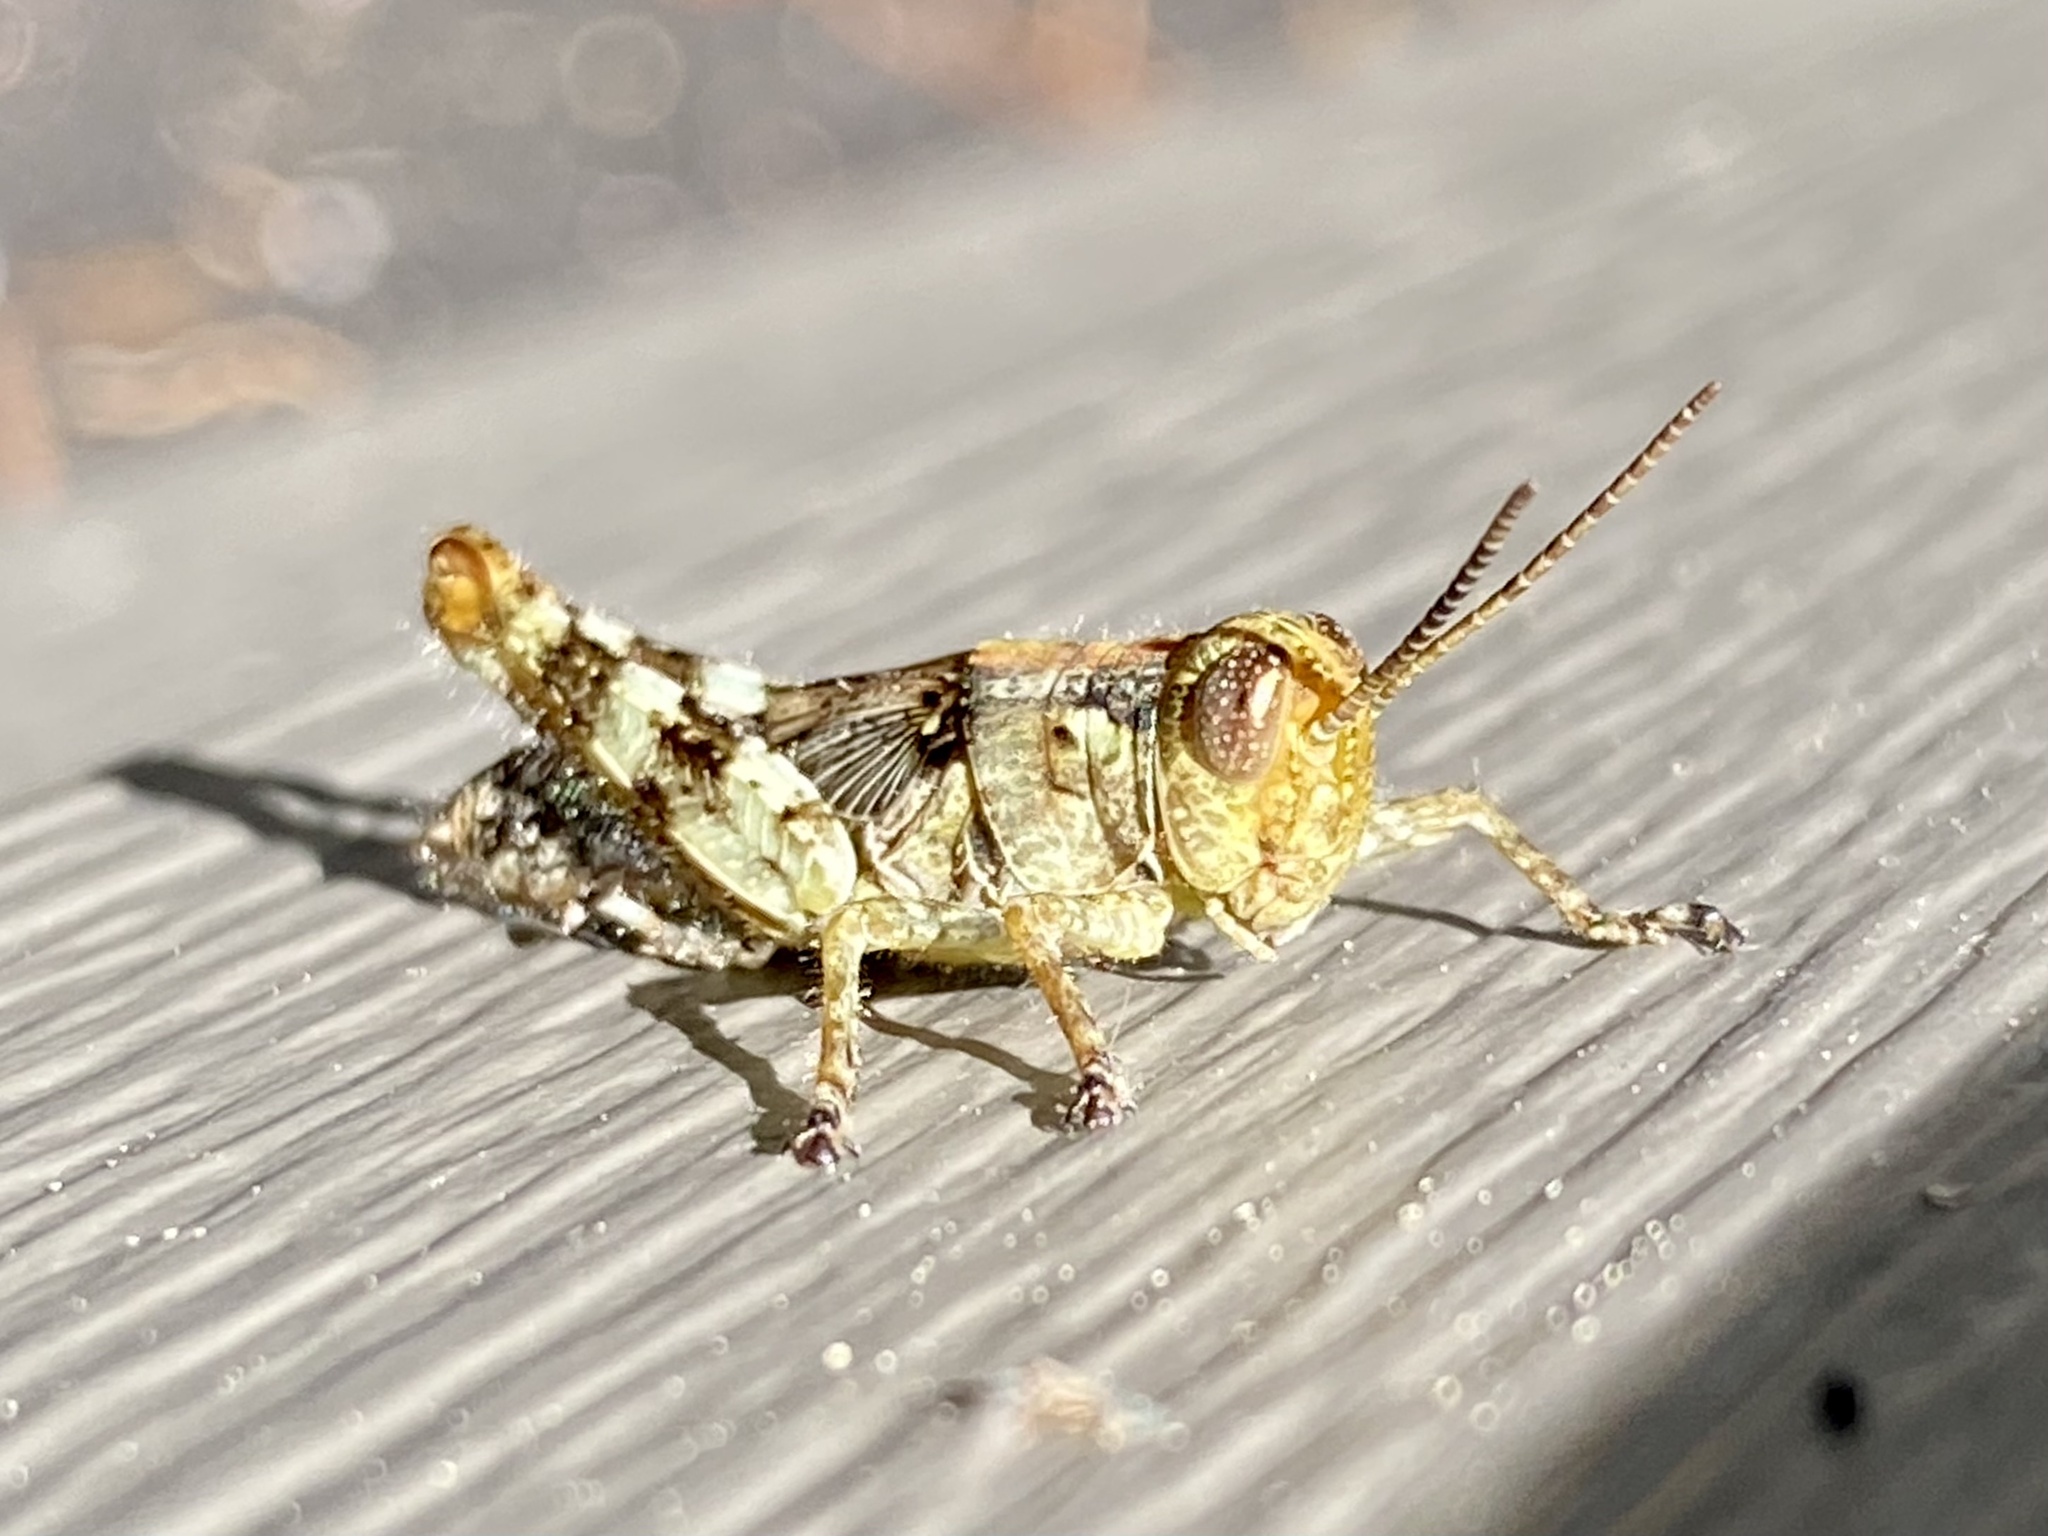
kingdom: Animalia
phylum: Arthropoda
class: Insecta
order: Orthoptera
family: Acrididae
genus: Melanoplus
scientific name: Melanoplus punctulatus
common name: Pine-tree spur-throat grasshopper
